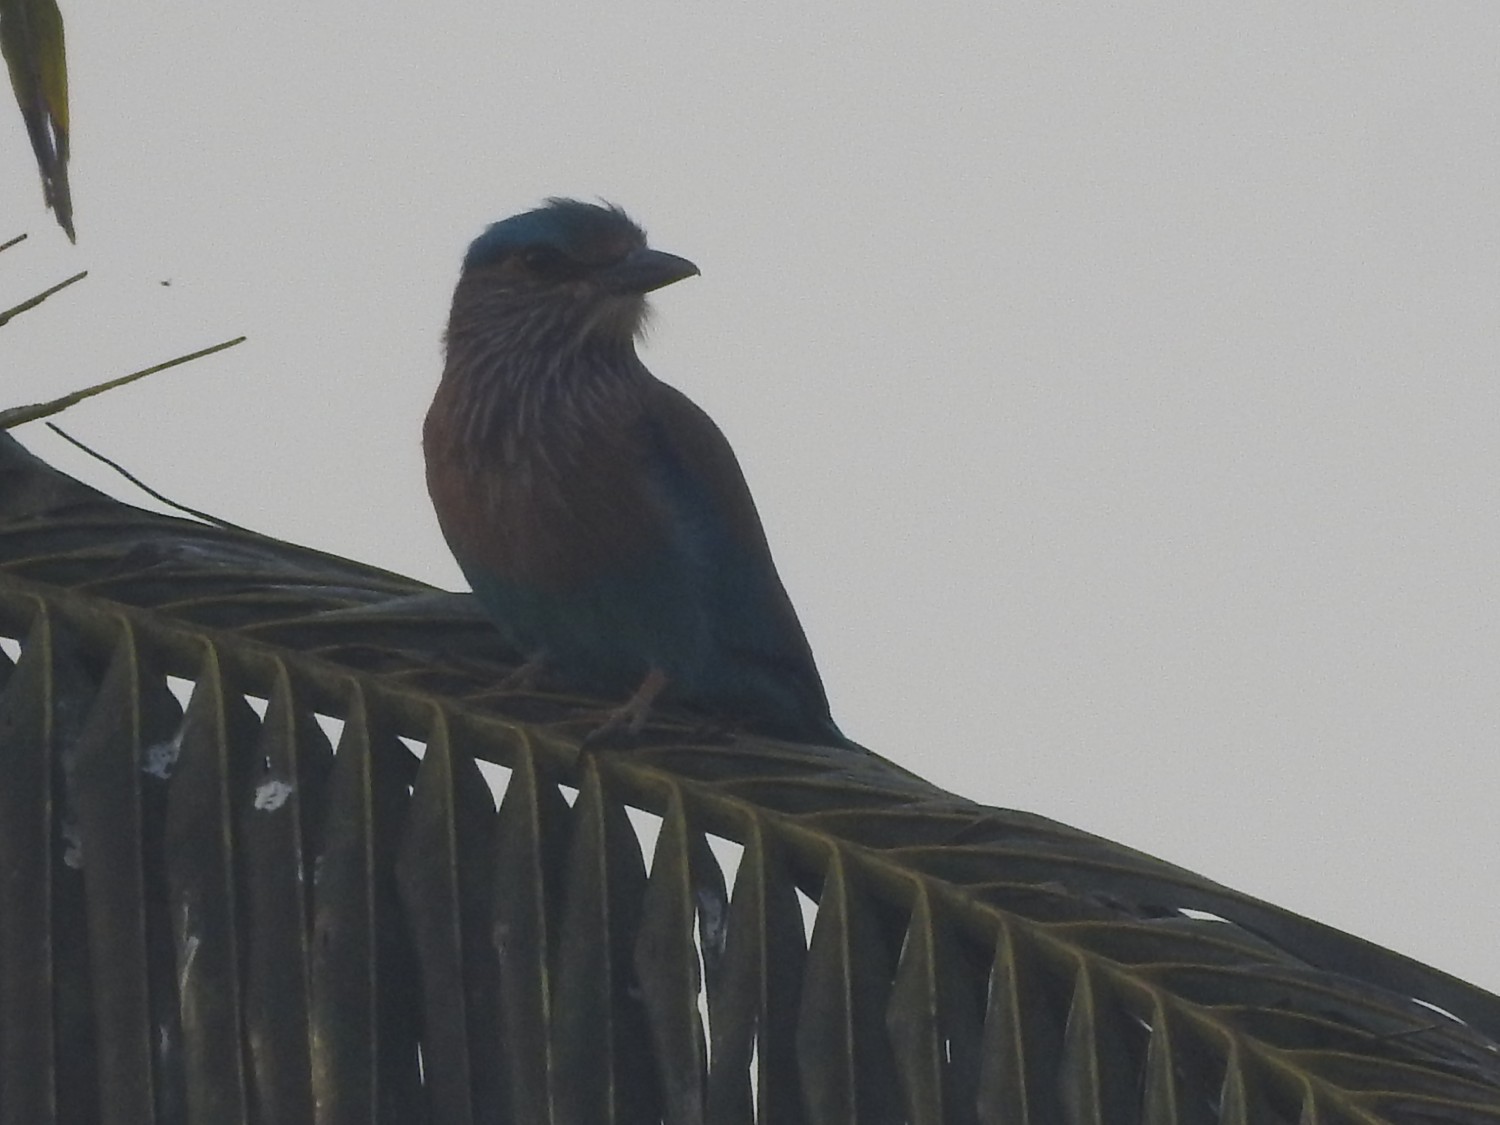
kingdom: Animalia
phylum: Chordata
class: Aves
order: Coraciiformes
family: Coraciidae
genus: Coracias
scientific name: Coracias benghalensis
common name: Indian roller
